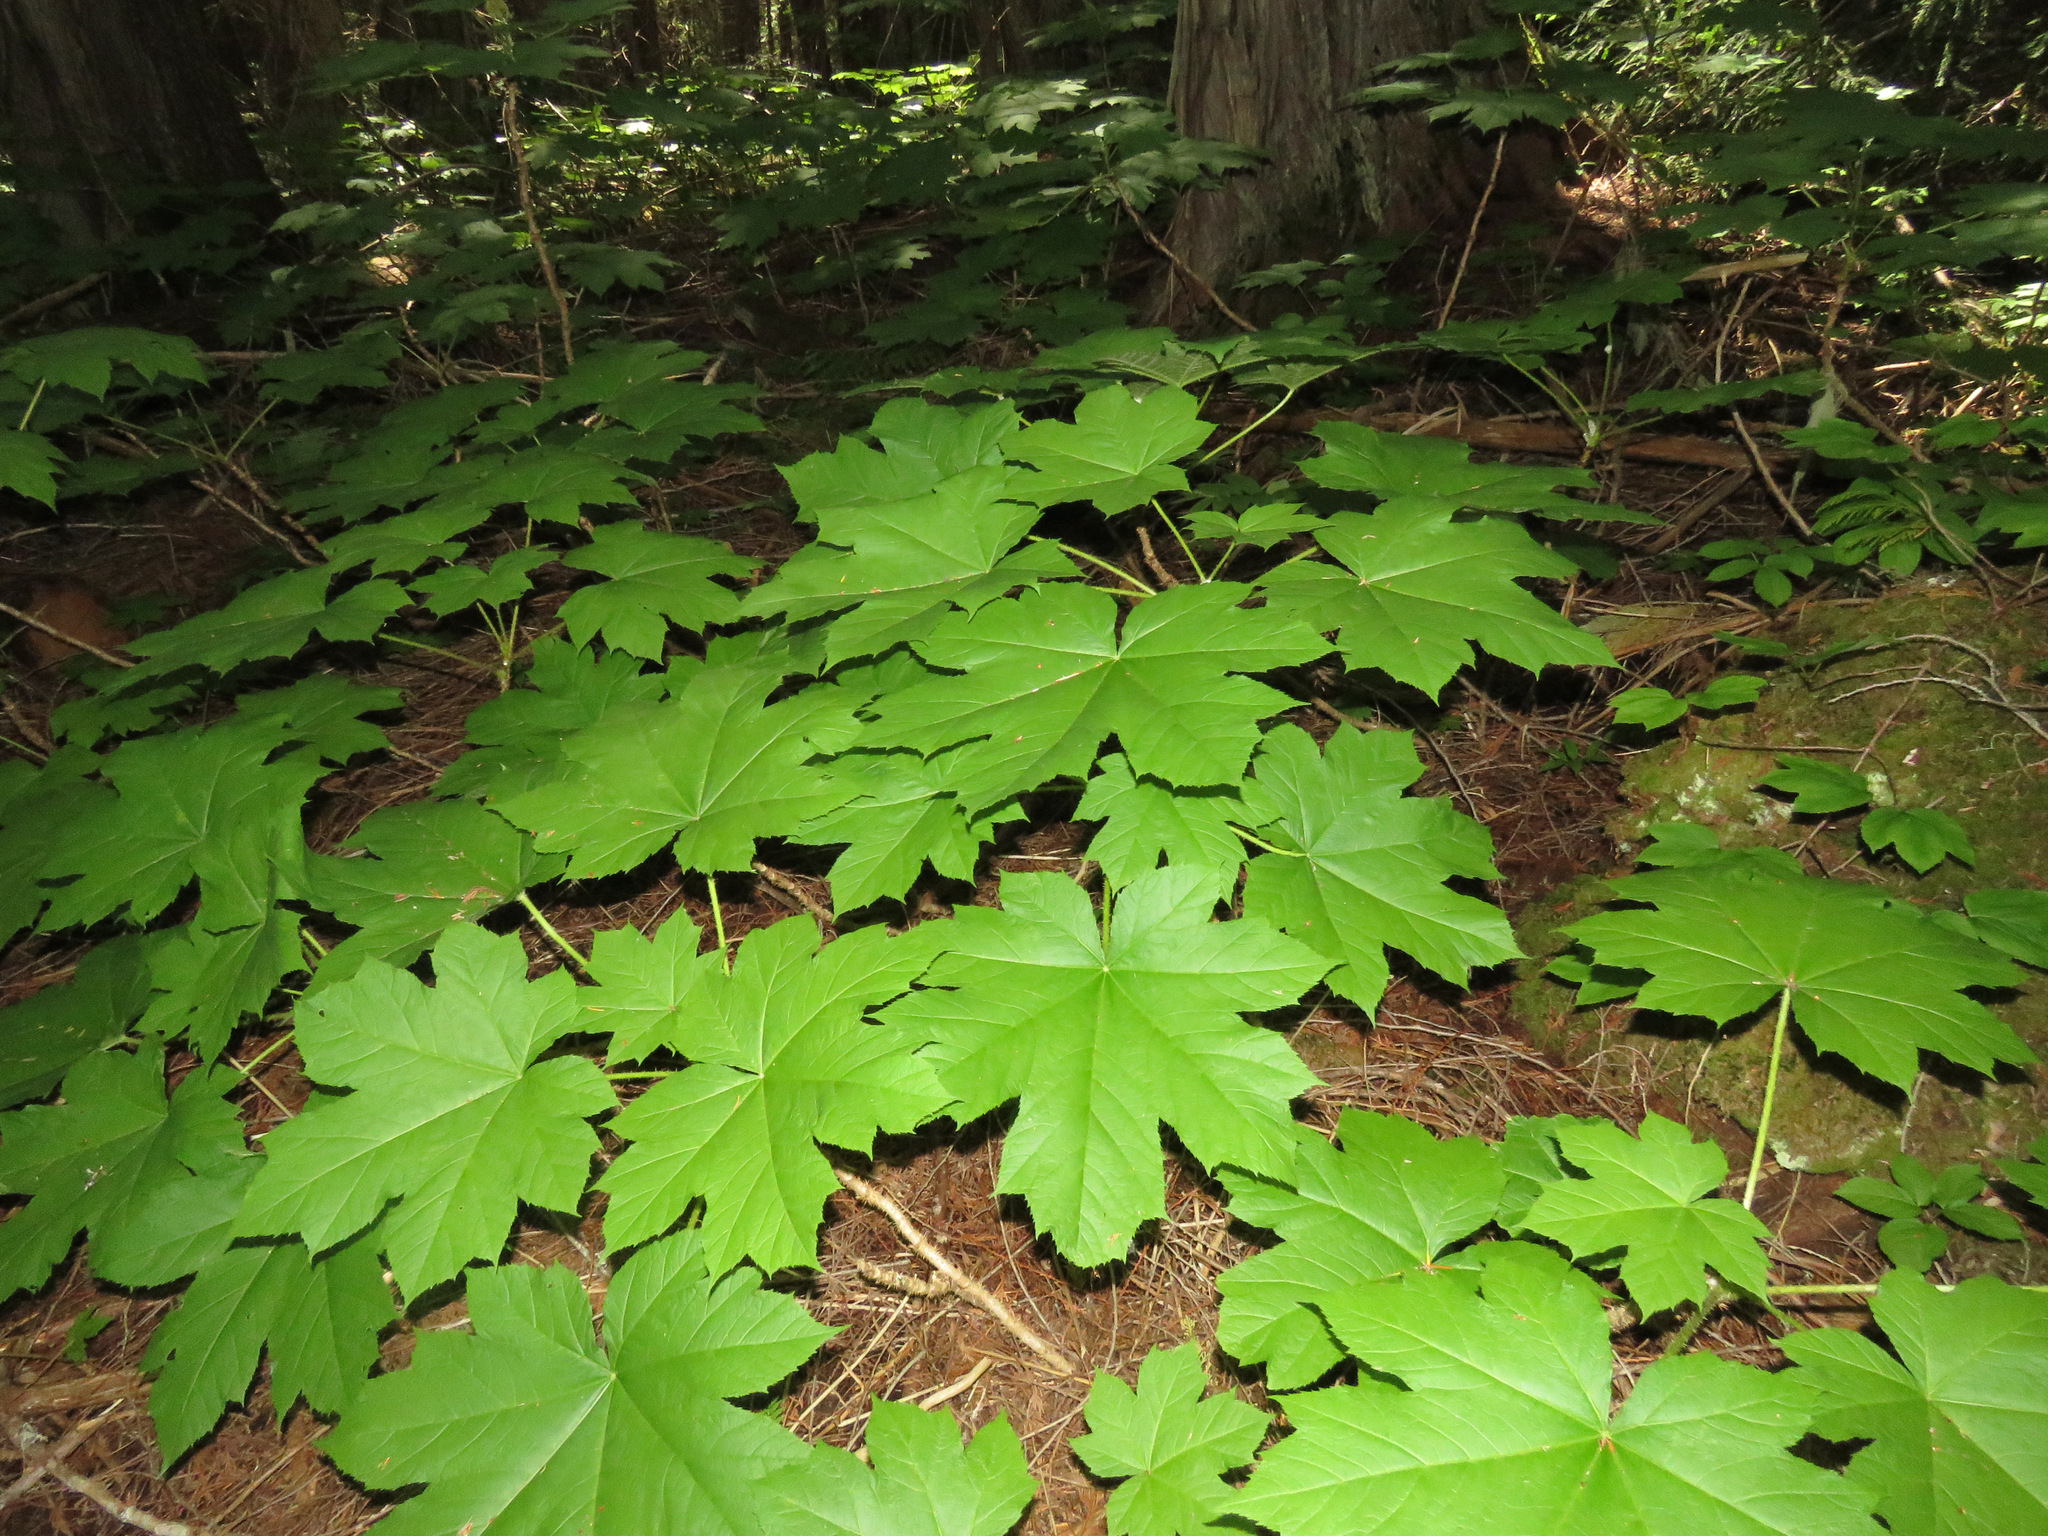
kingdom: Plantae
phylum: Tracheophyta
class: Magnoliopsida
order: Apiales
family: Araliaceae
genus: Oplopanax
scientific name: Oplopanax horridus
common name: Devil's walking-stick
